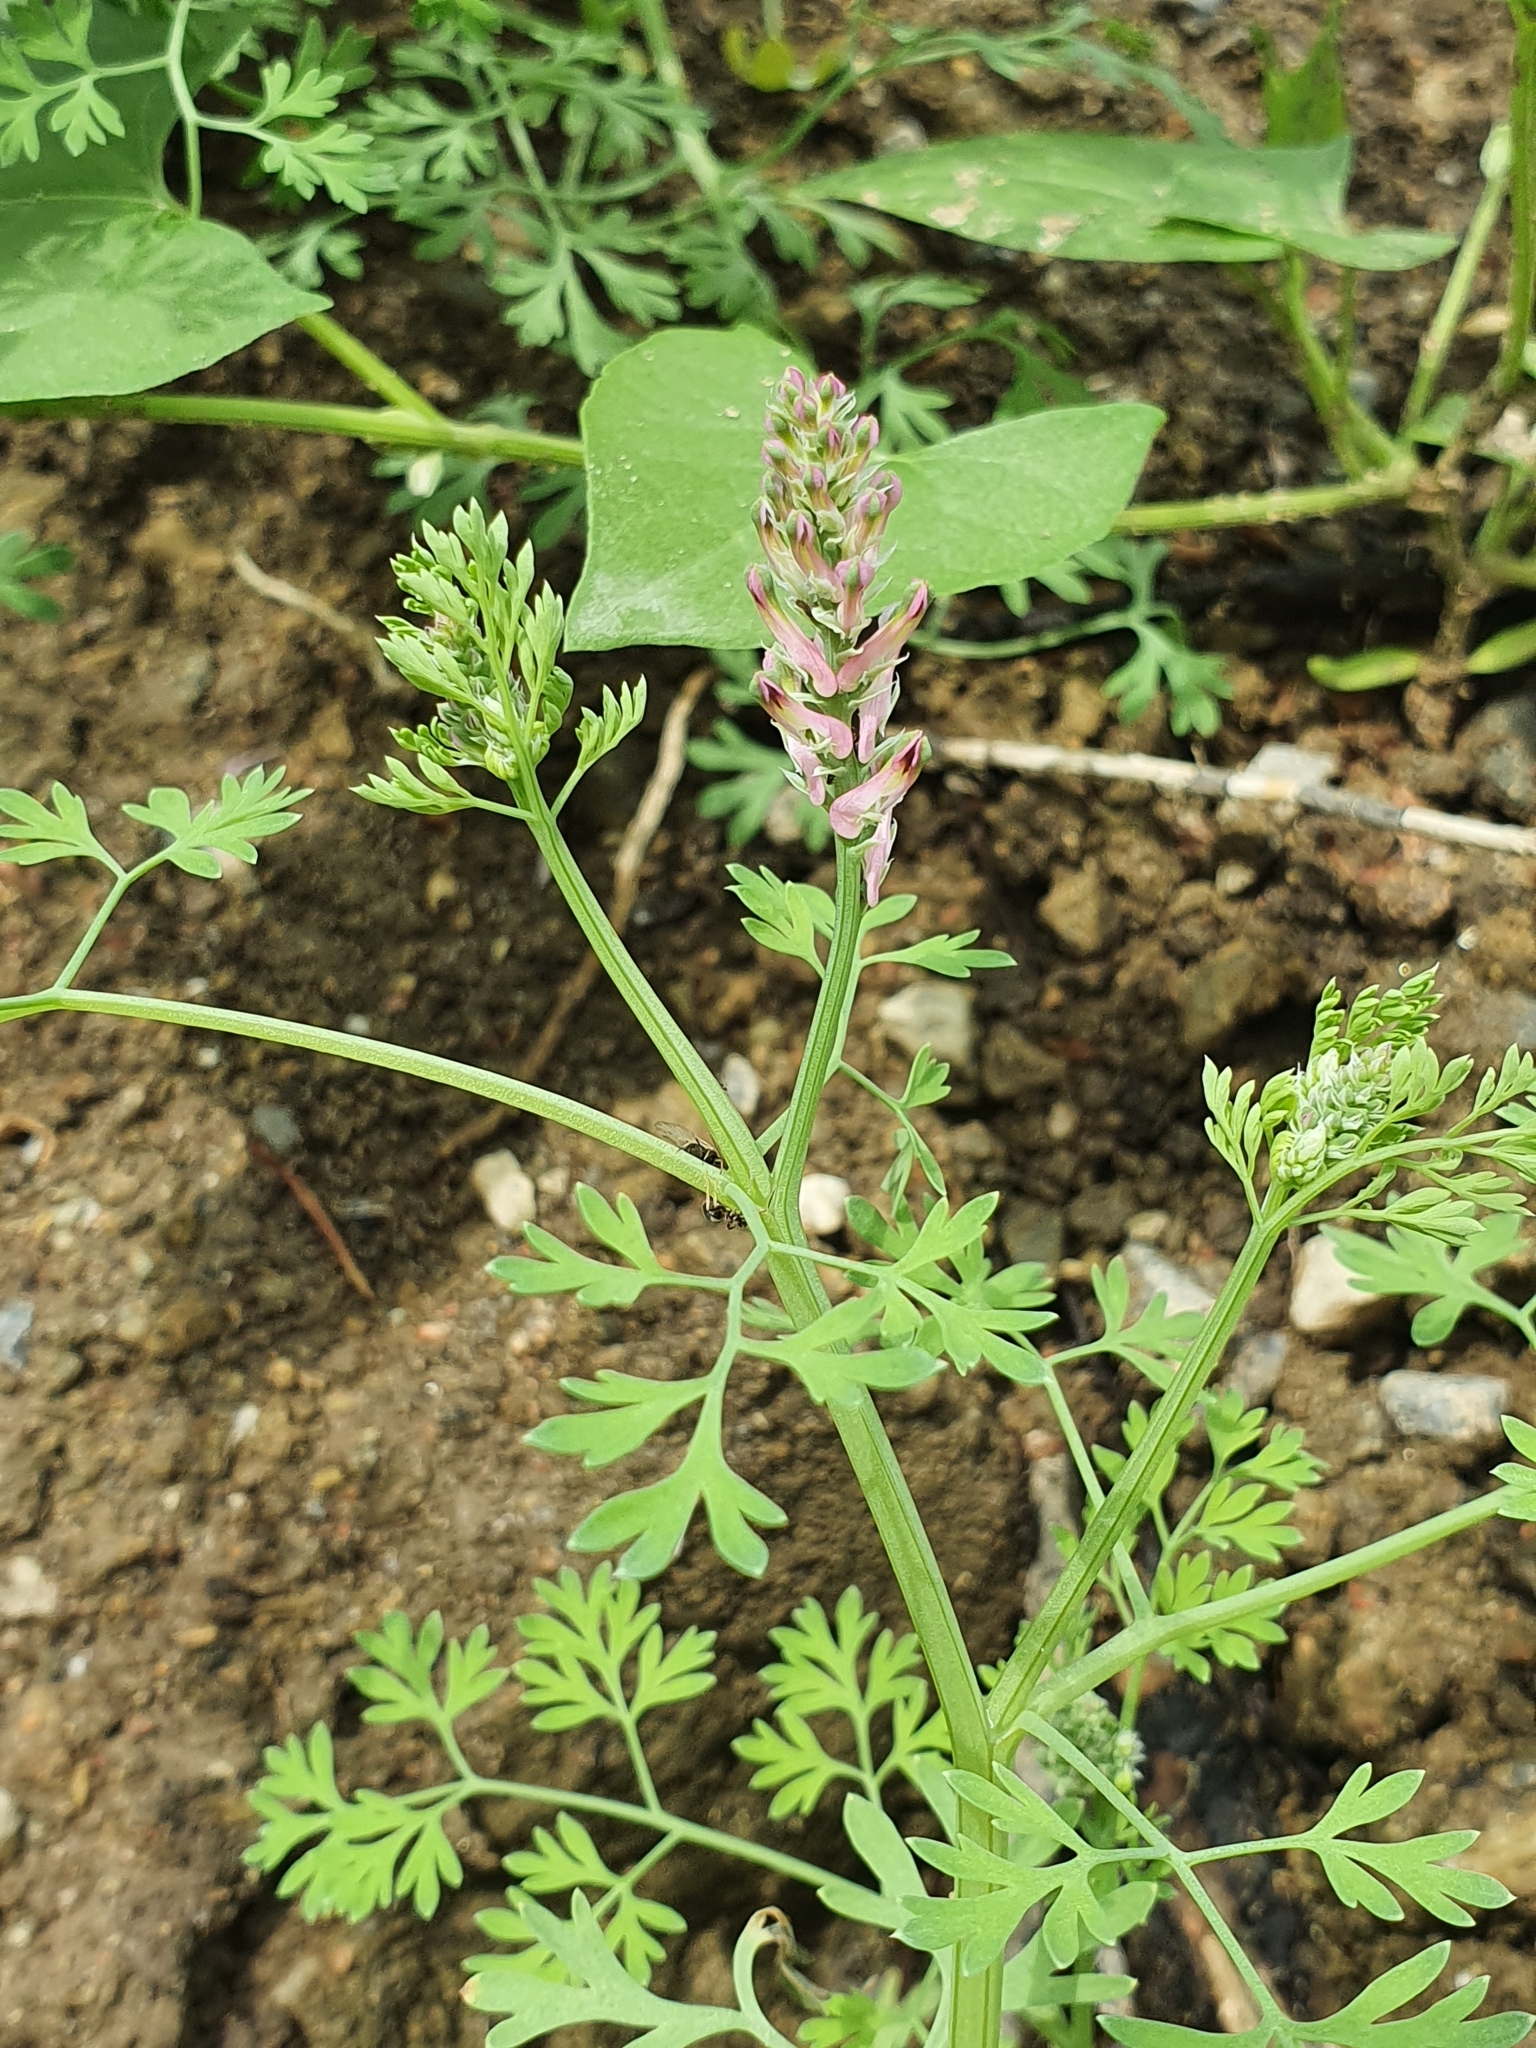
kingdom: Plantae
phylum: Tracheophyta
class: Magnoliopsida
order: Ranunculales
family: Papaveraceae
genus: Fumaria
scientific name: Fumaria officinalis
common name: Common fumitory
